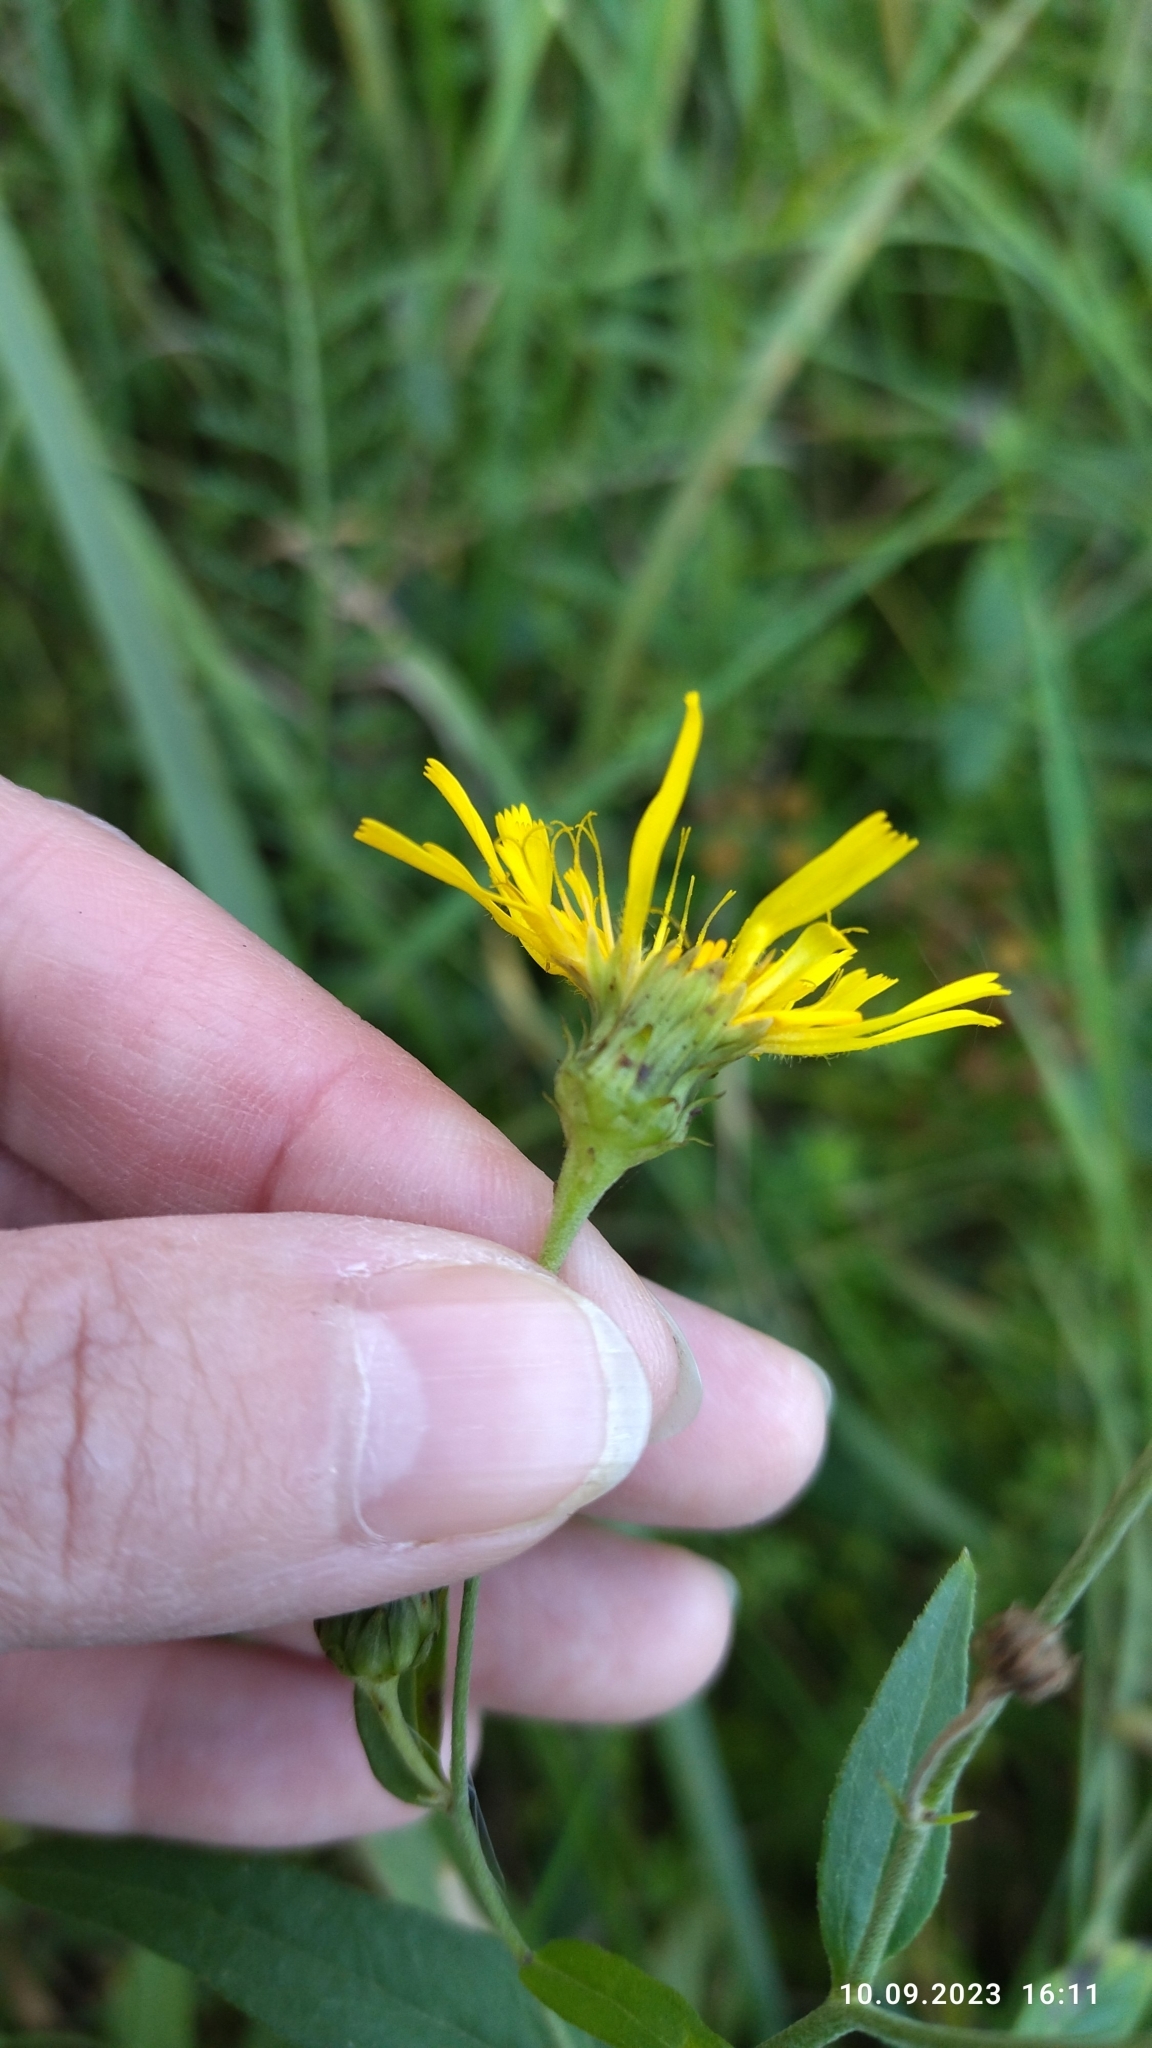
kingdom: Plantae
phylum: Tracheophyta
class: Magnoliopsida
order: Asterales
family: Asteraceae
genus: Hieracium
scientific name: Hieracium umbellatum
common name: Northern hawkweed
